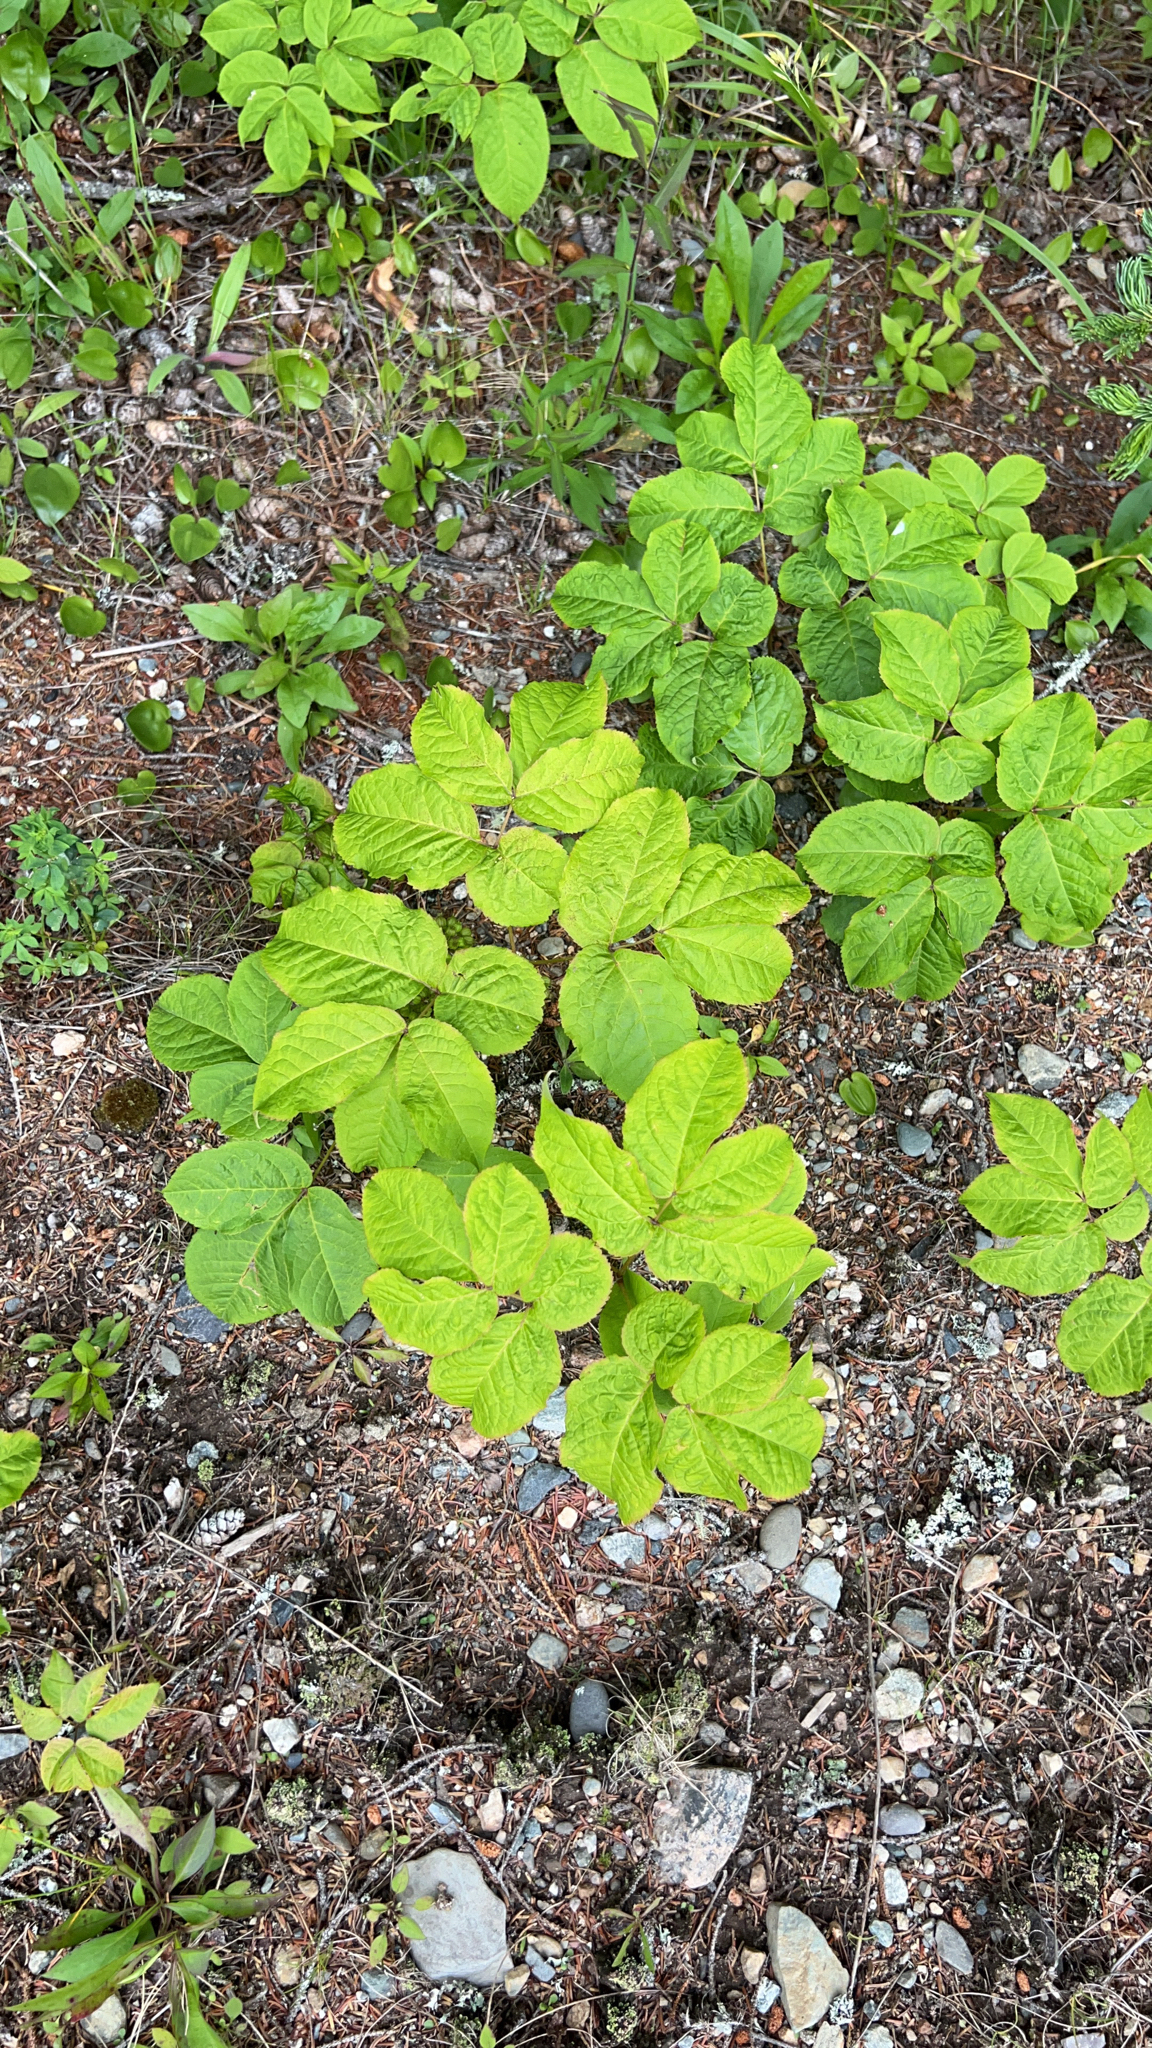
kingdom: Plantae
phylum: Tracheophyta
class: Magnoliopsida
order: Apiales
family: Araliaceae
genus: Aralia
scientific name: Aralia nudicaulis
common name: Wild sarsaparilla
